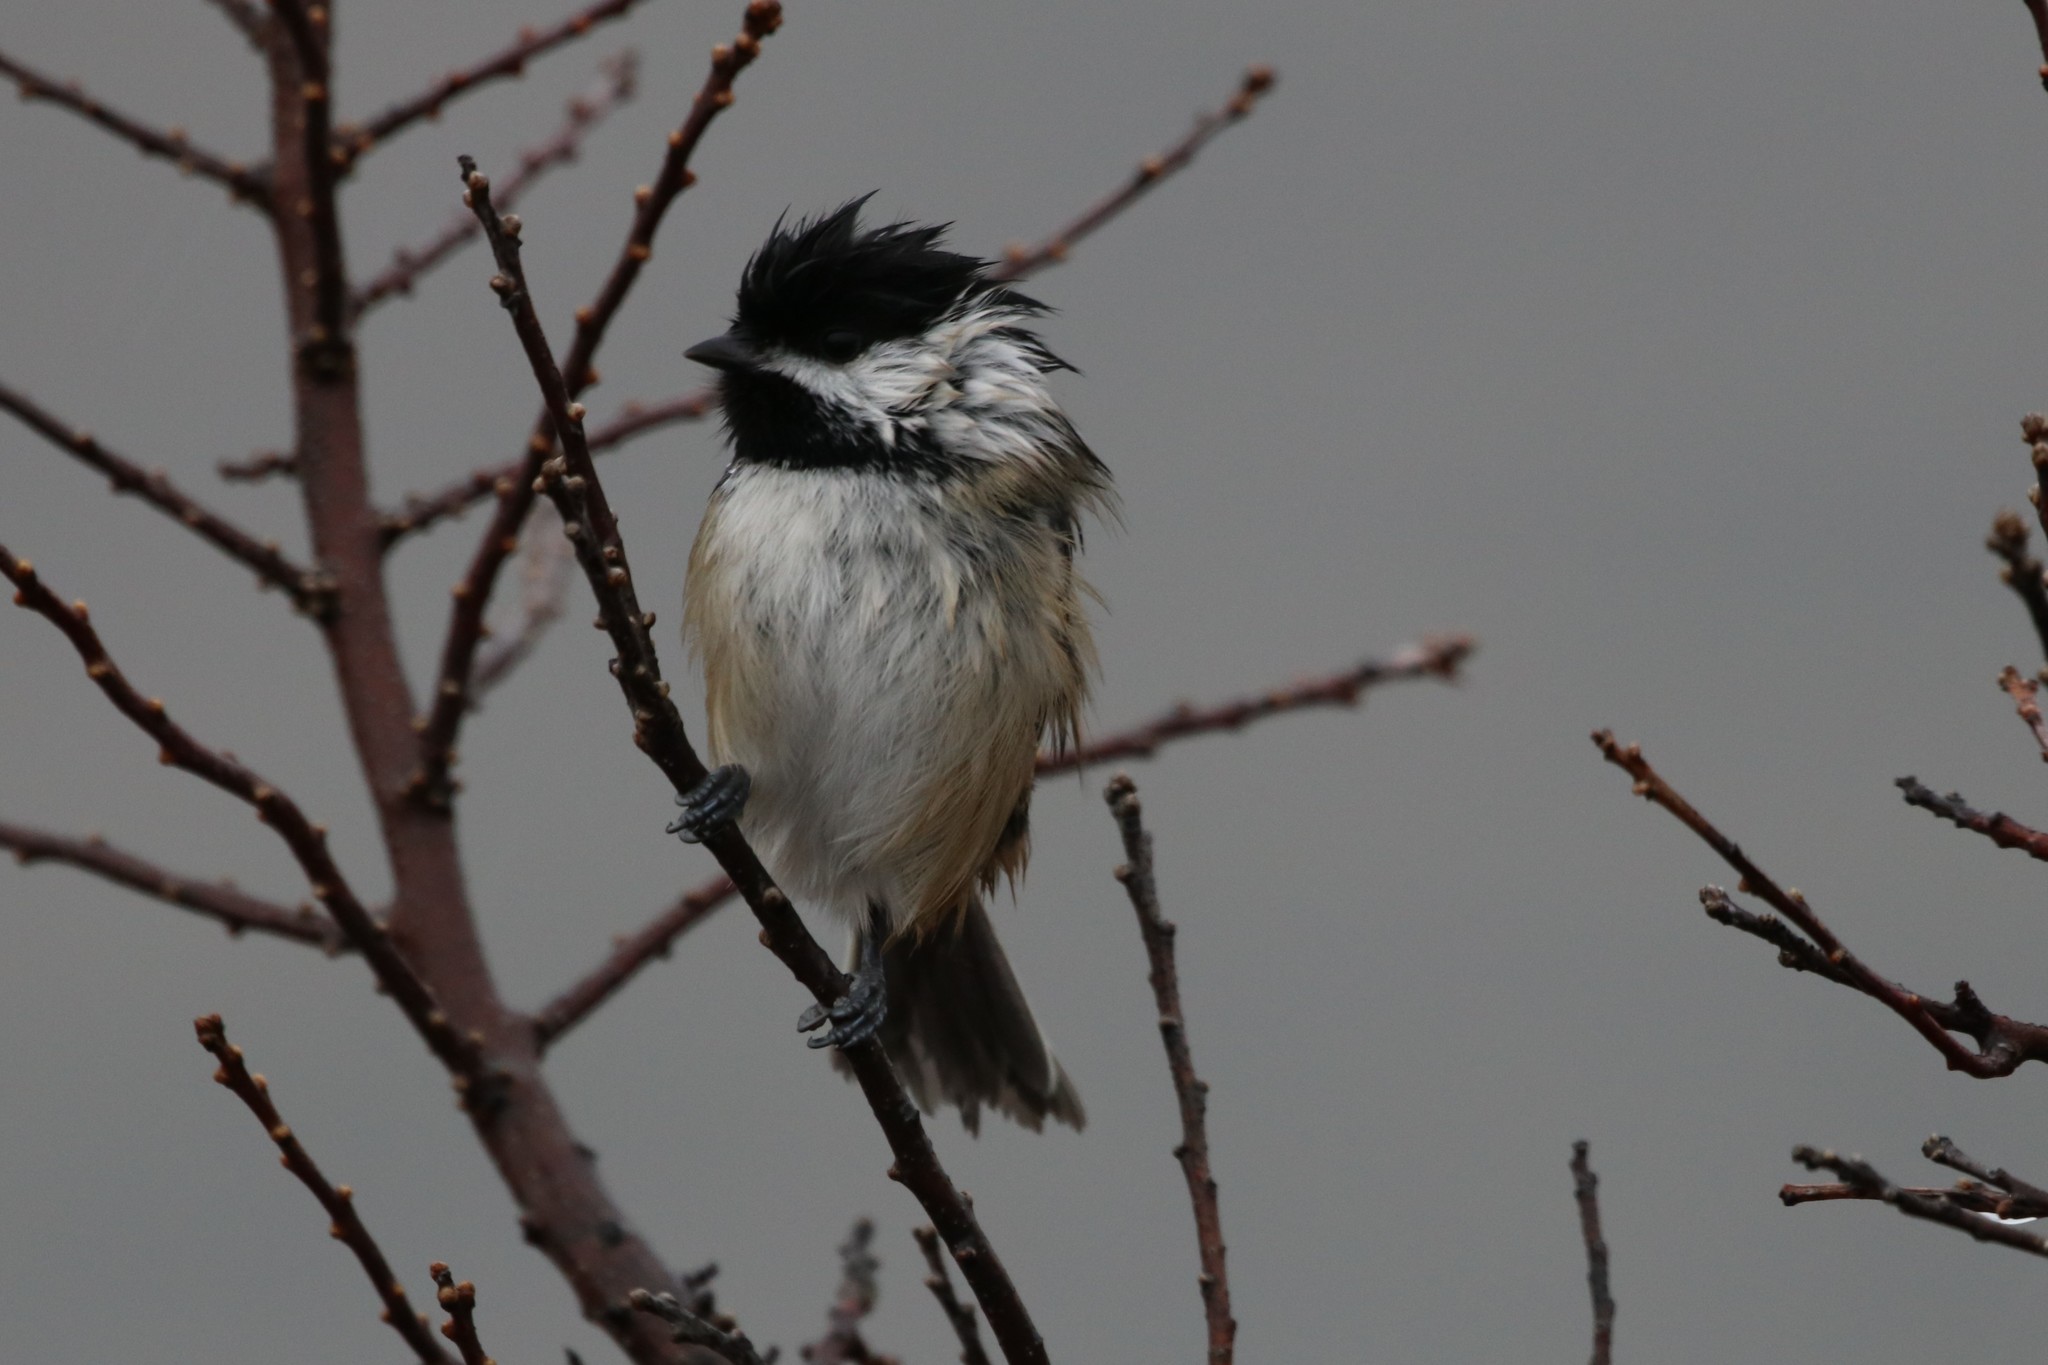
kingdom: Animalia
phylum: Chordata
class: Aves
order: Passeriformes
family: Paridae
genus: Poecile
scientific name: Poecile atricapillus
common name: Black-capped chickadee
